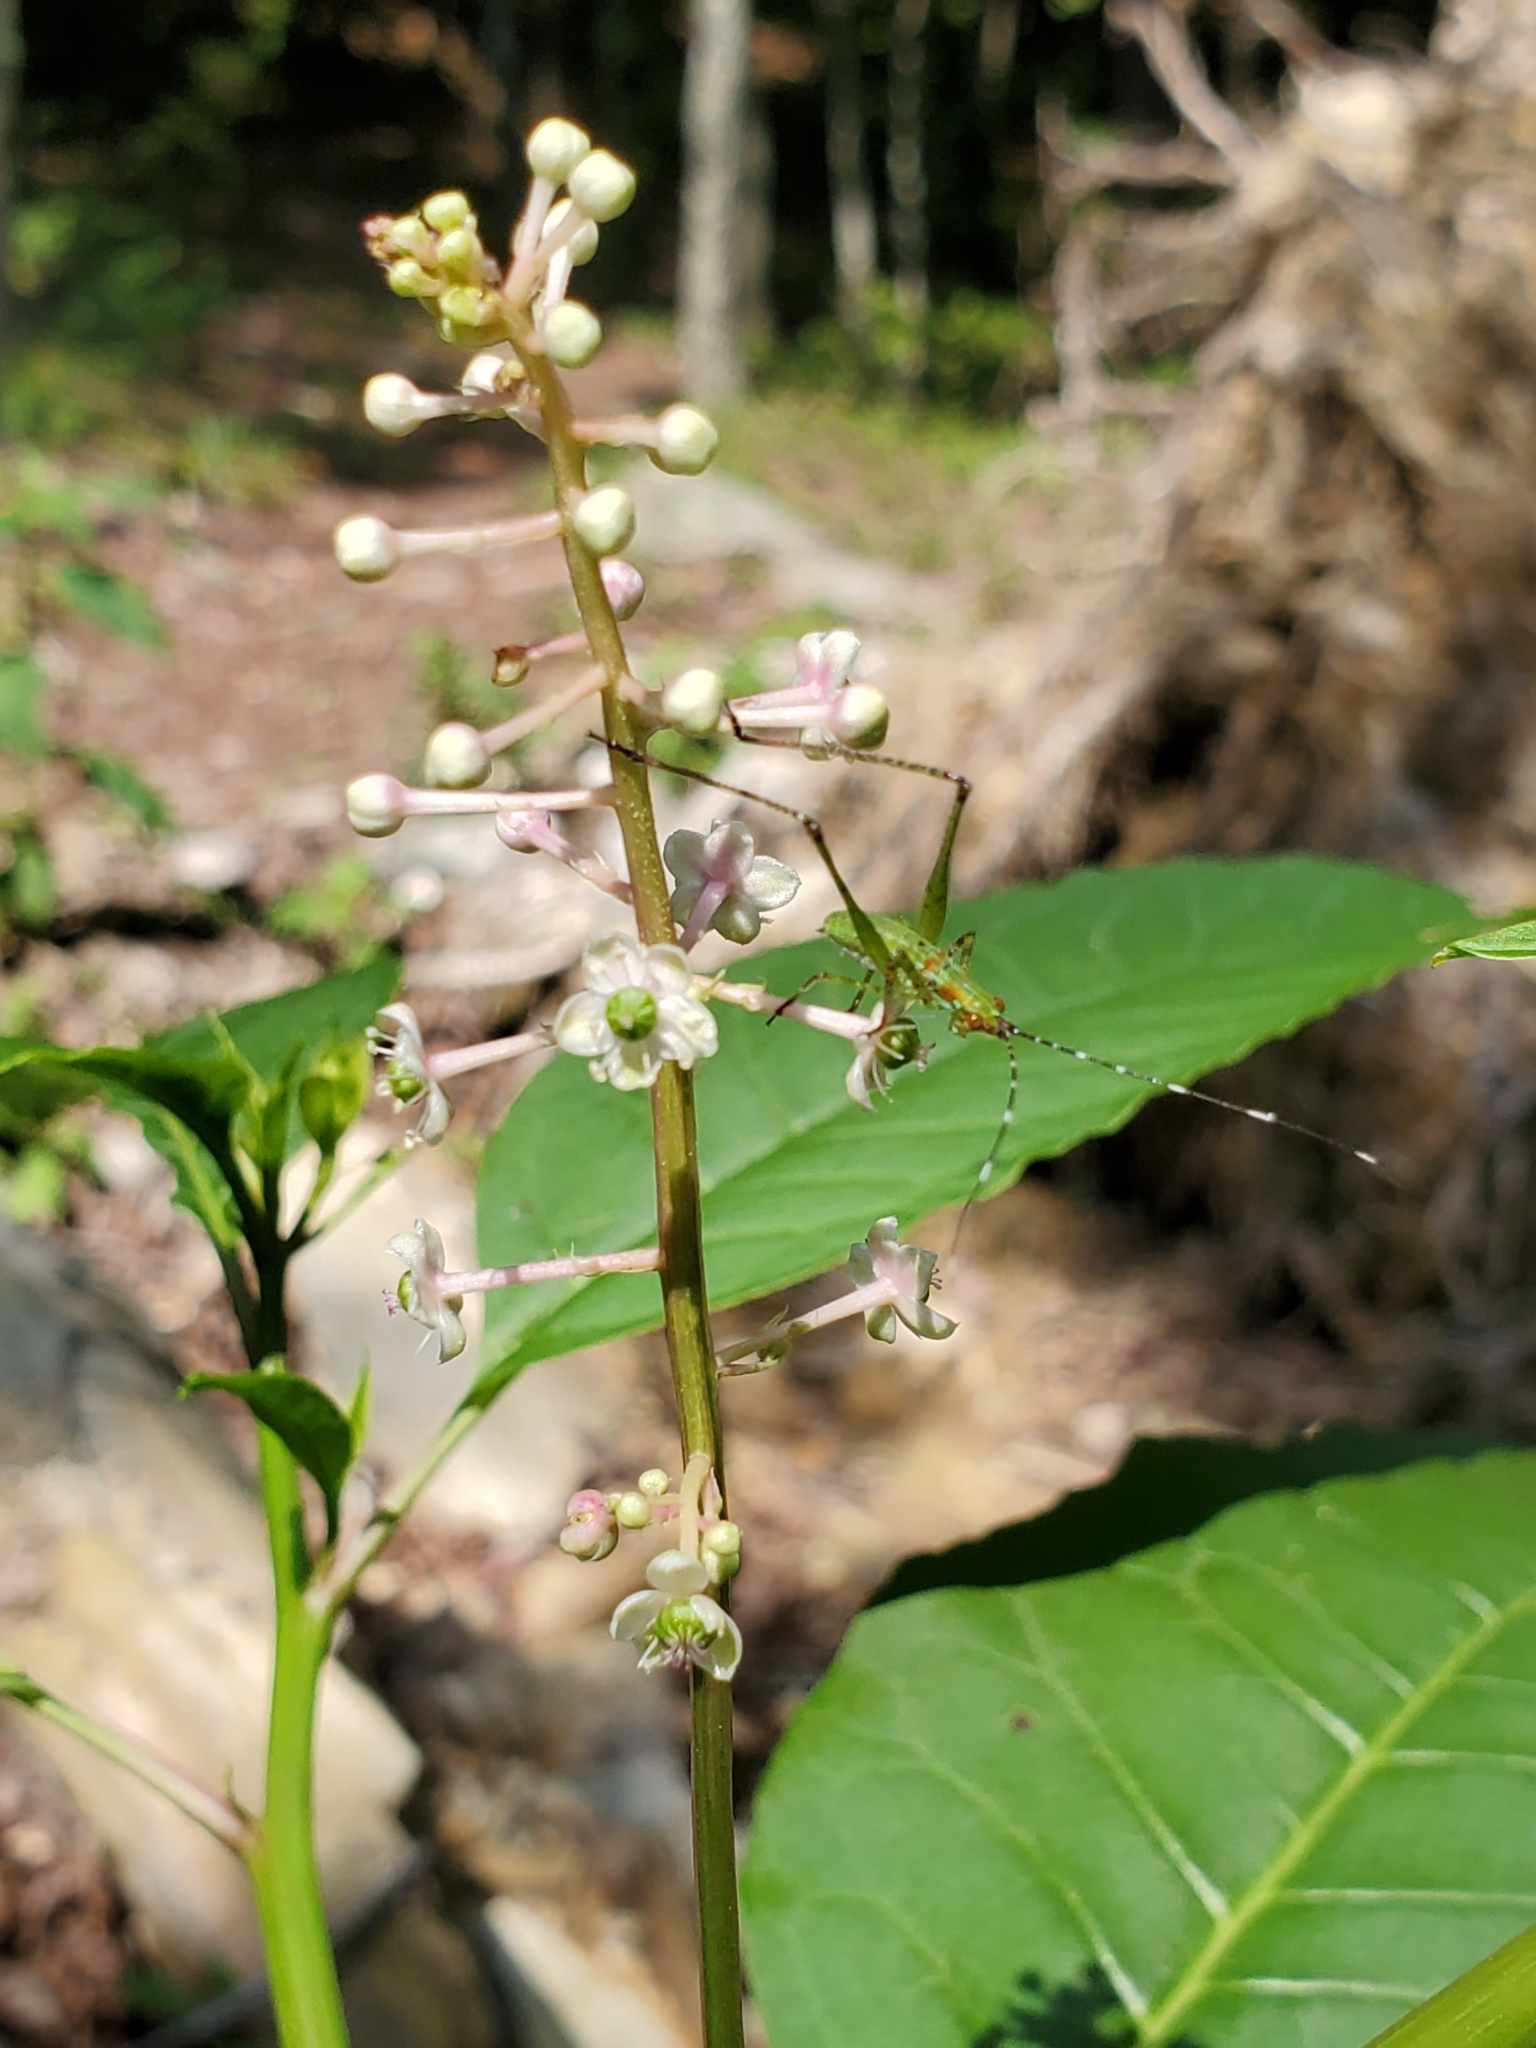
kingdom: Plantae
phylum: Tracheophyta
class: Magnoliopsida
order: Caryophyllales
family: Phytolaccaceae
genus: Phytolacca
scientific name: Phytolacca americana
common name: American pokeweed
